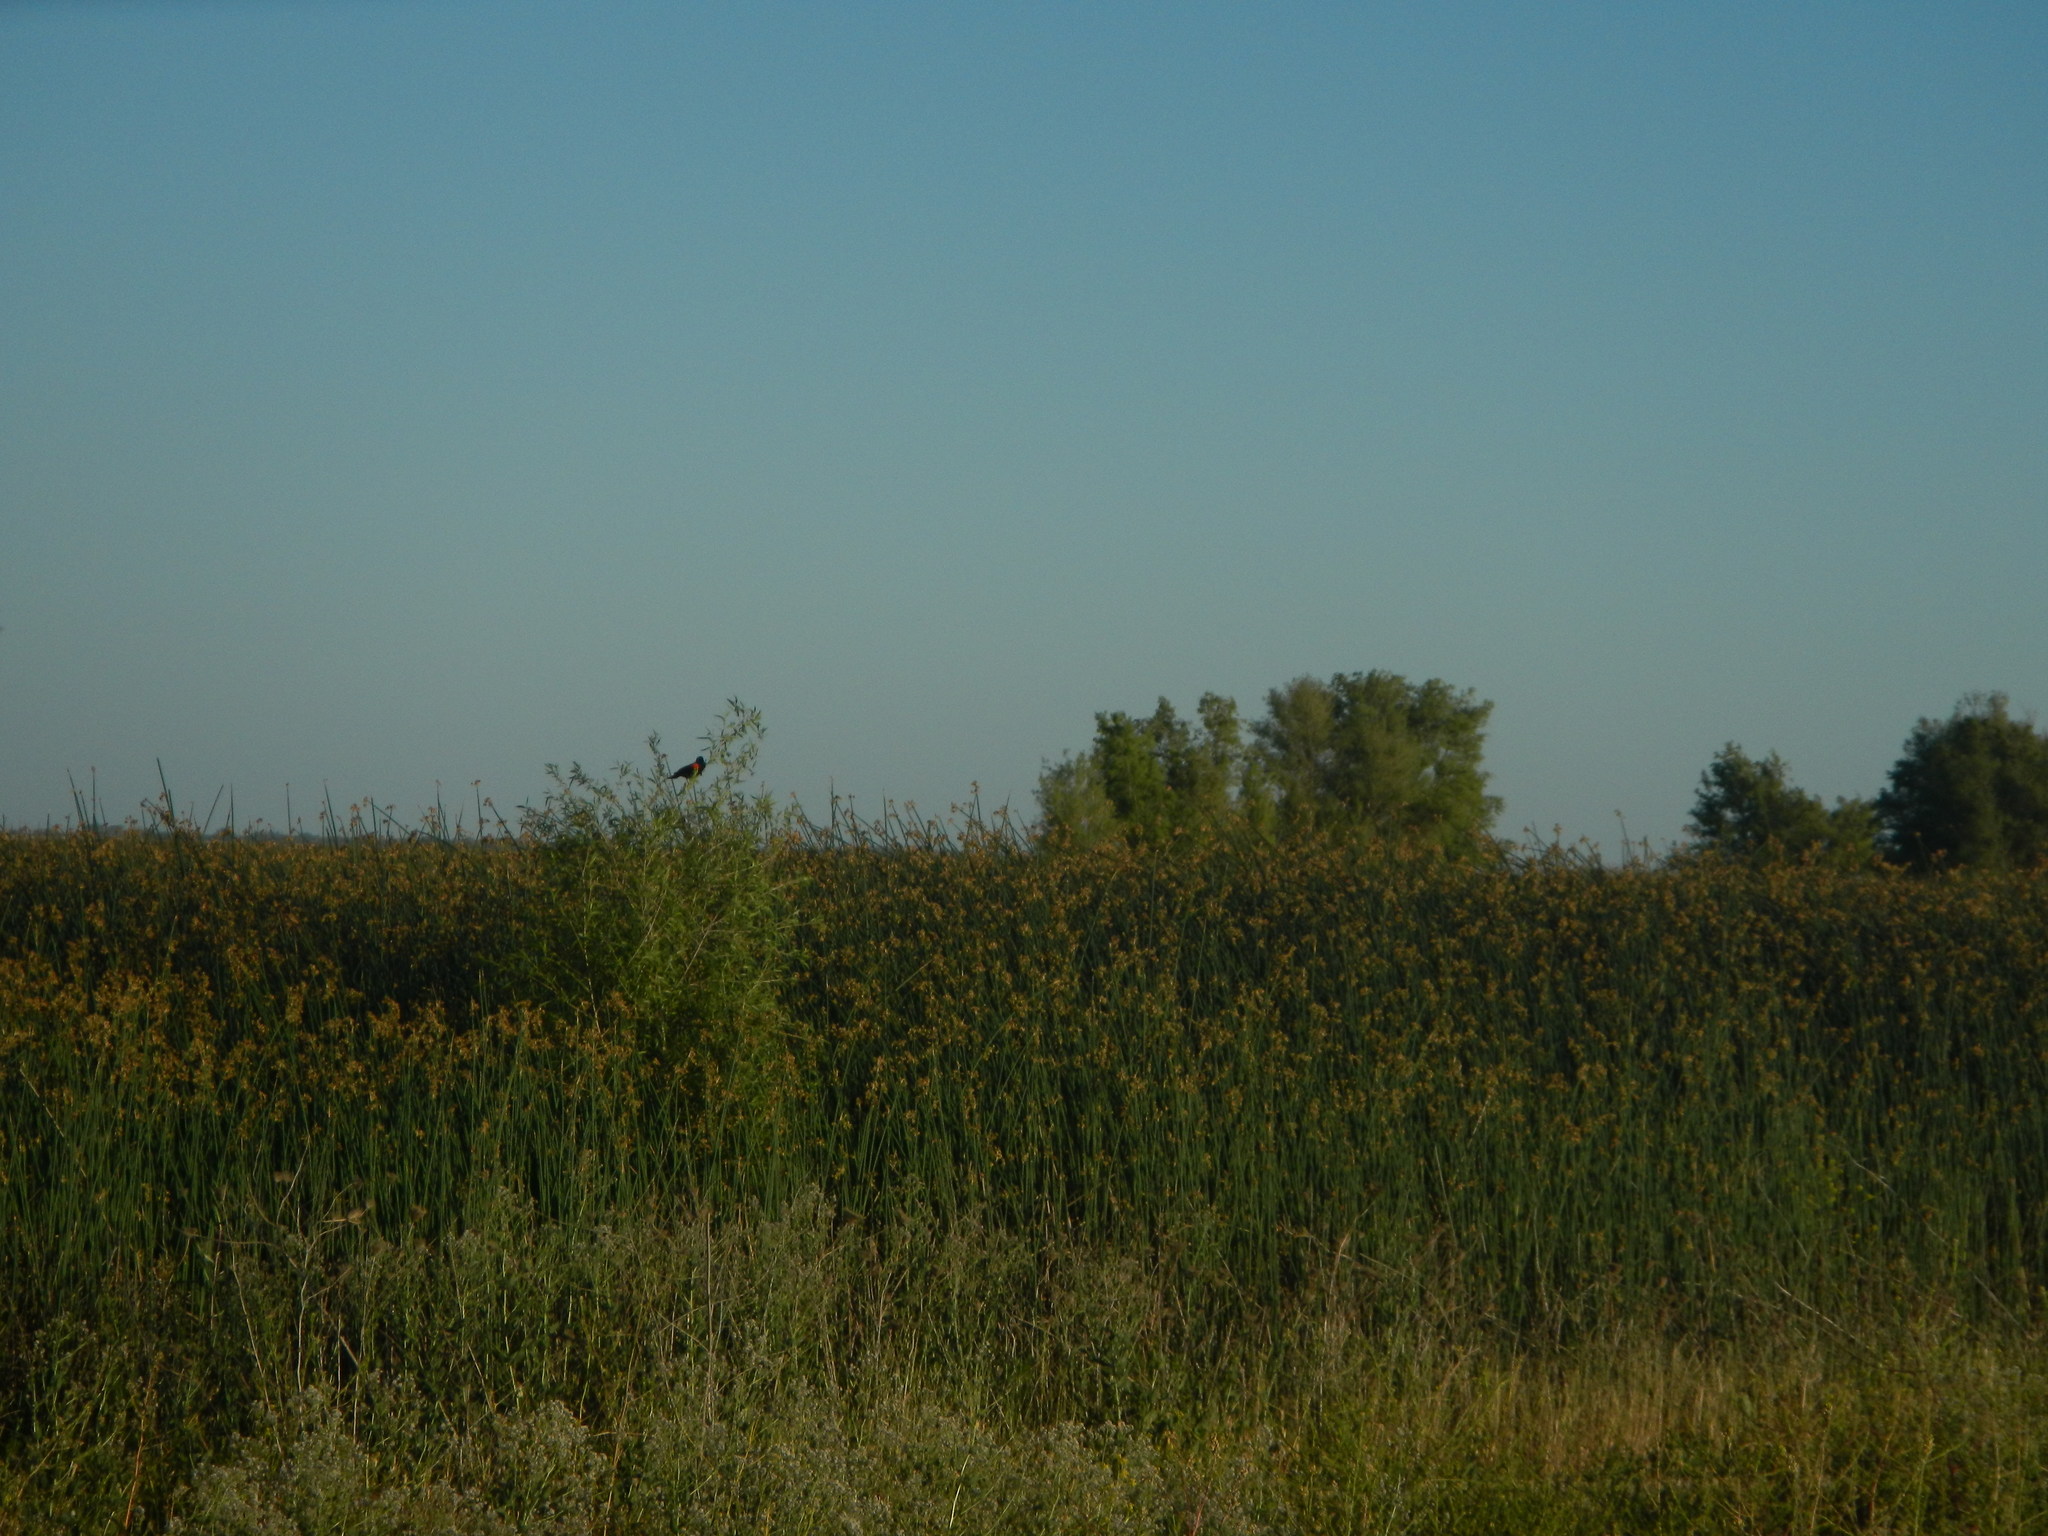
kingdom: Animalia
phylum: Chordata
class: Aves
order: Passeriformes
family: Icteridae
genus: Agelaius
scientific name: Agelaius phoeniceus
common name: Red-winged blackbird
